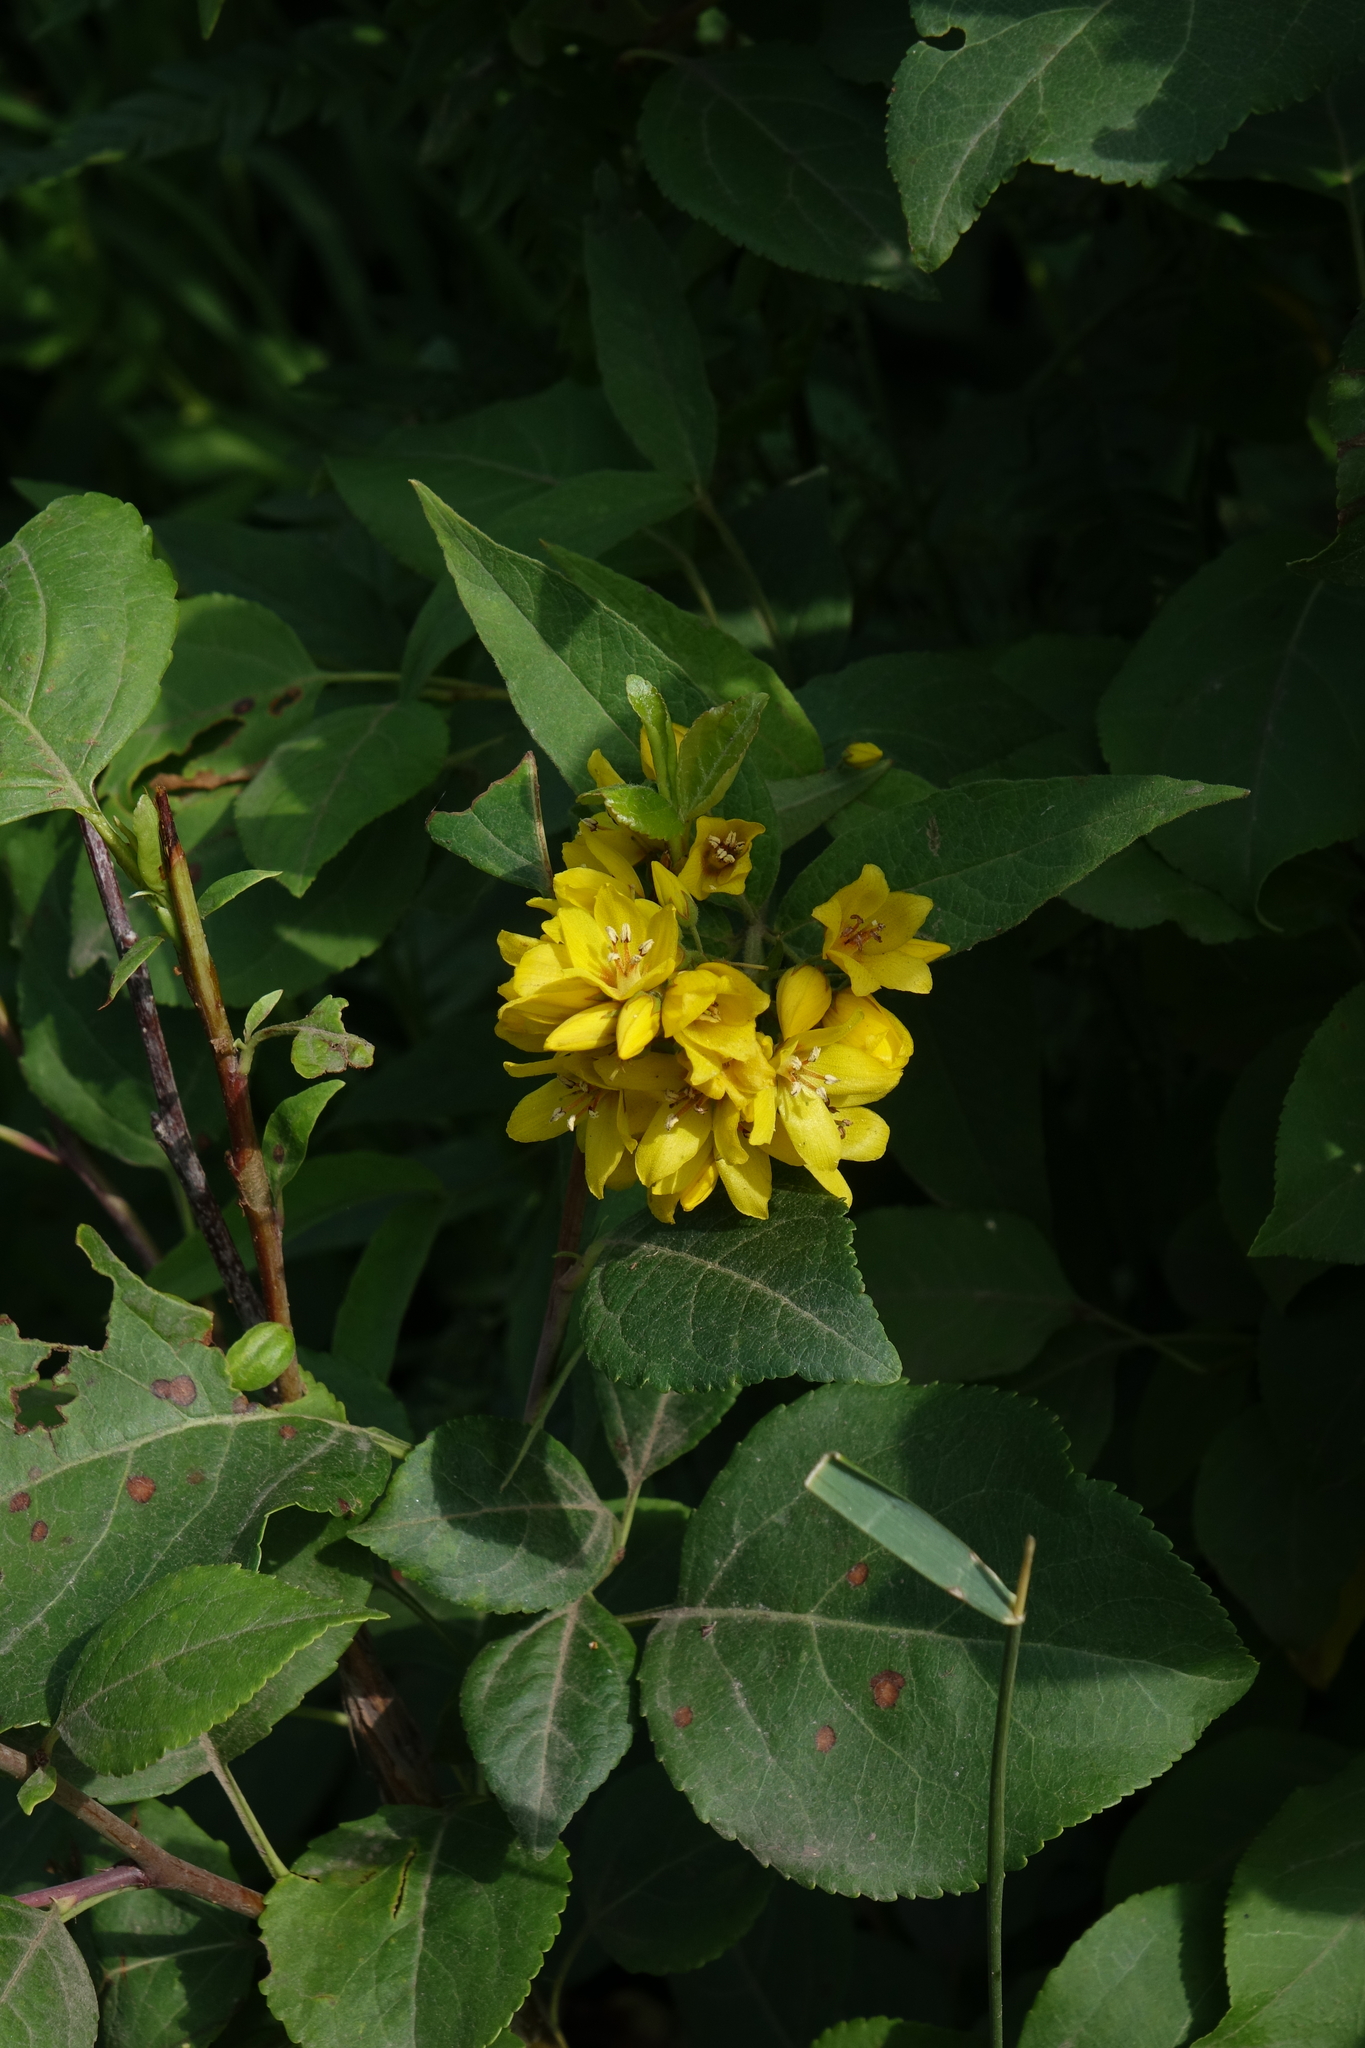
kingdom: Plantae
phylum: Tracheophyta
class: Magnoliopsida
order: Ericales
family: Primulaceae
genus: Lysimachia
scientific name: Lysimachia vulgaris
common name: Yellow loosestrife
